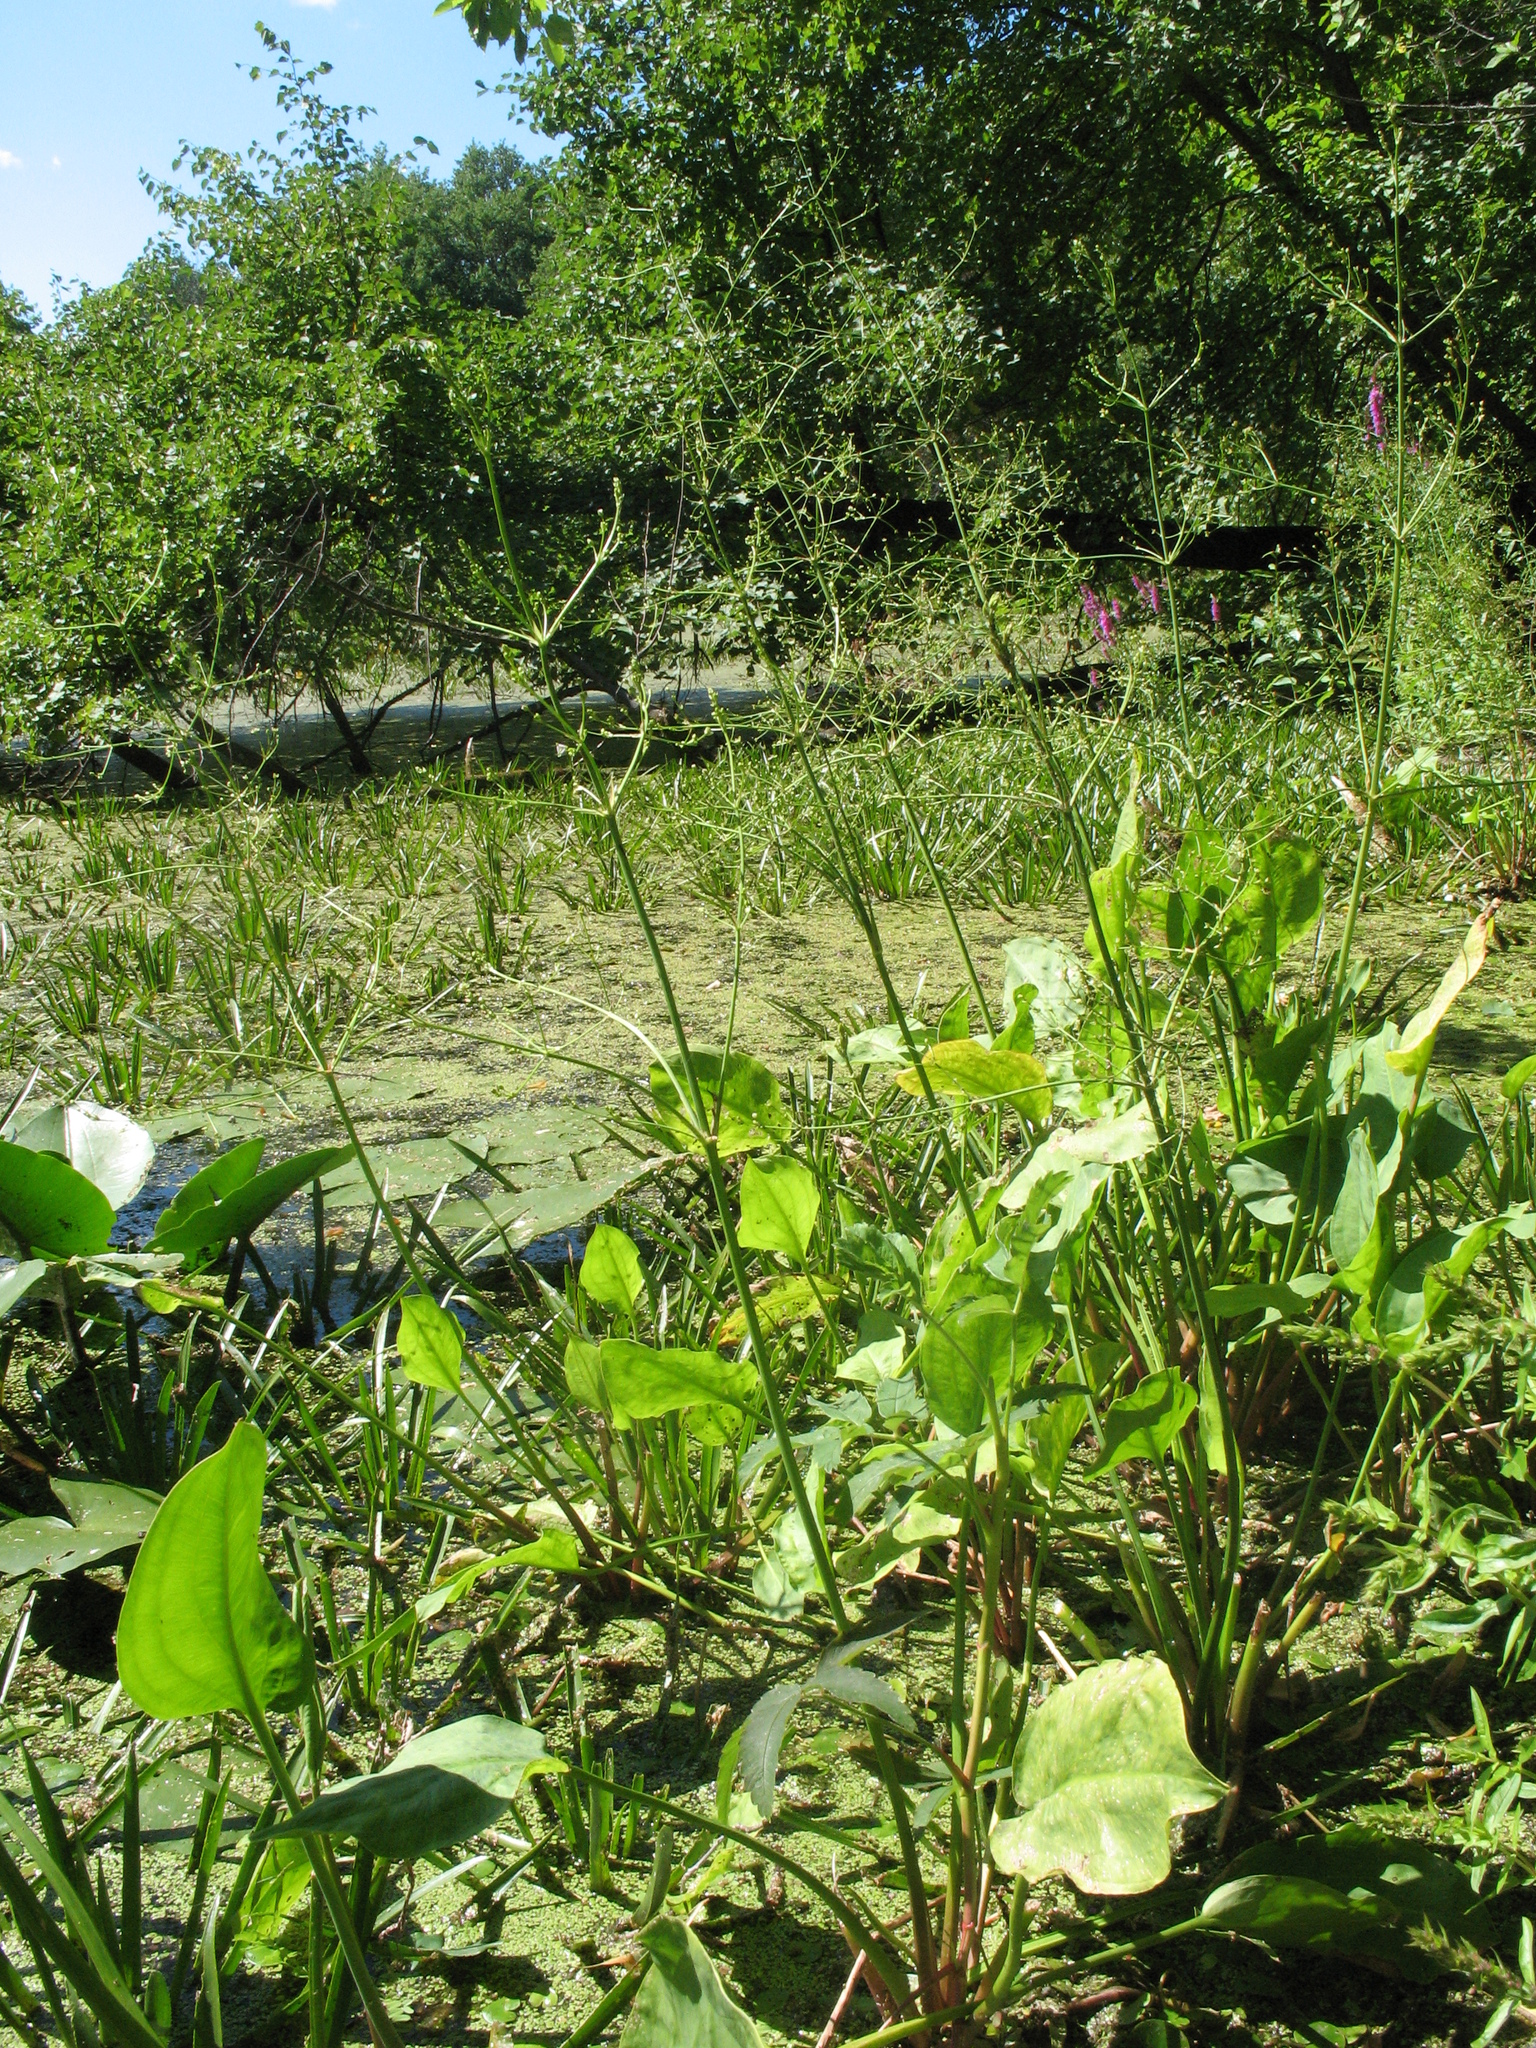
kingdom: Plantae
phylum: Tracheophyta
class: Liliopsida
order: Alismatales
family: Alismataceae
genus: Alisma
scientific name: Alisma plantago-aquatica
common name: Water-plantain
